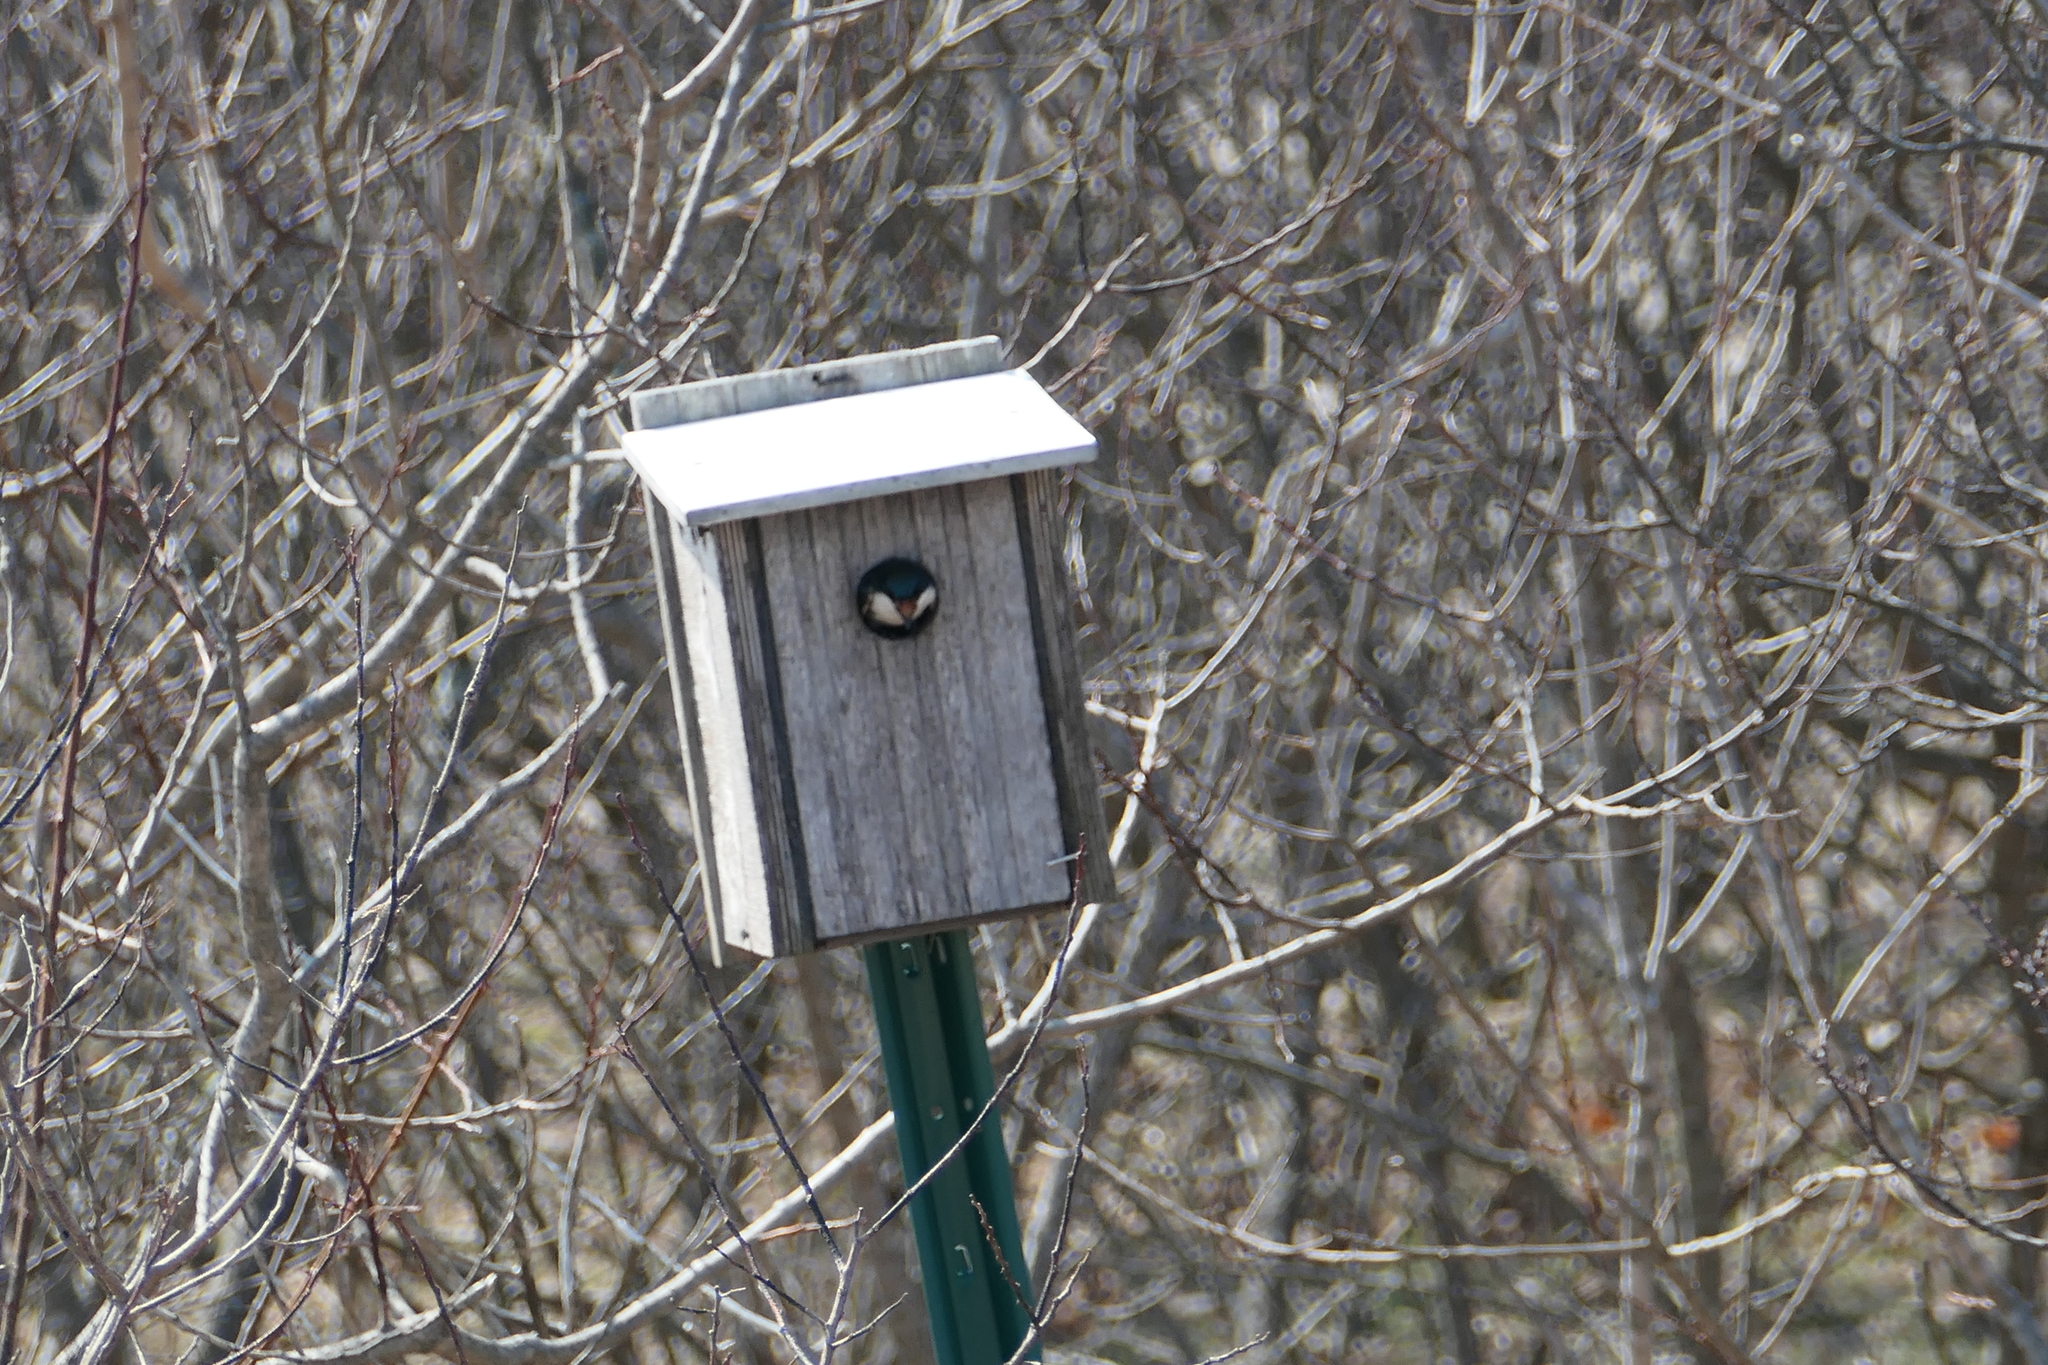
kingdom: Animalia
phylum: Chordata
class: Aves
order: Passeriformes
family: Hirundinidae
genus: Tachycineta
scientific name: Tachycineta bicolor
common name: Tree swallow
